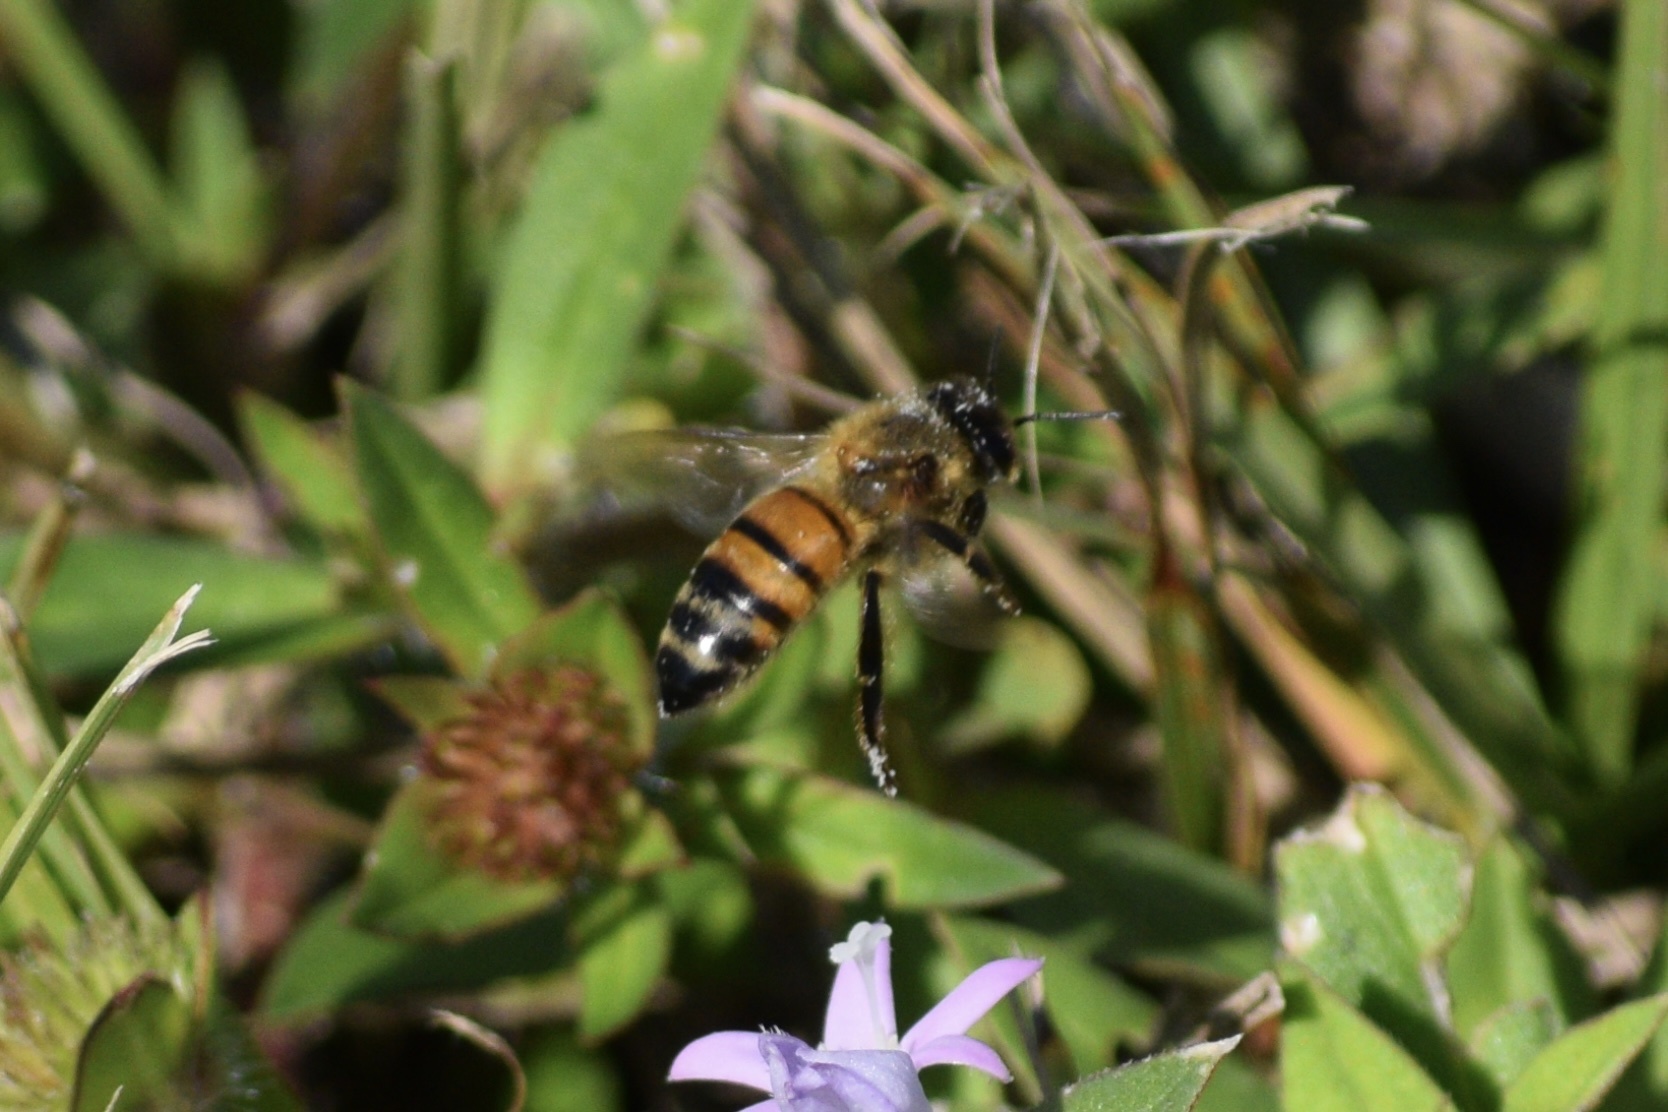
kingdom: Animalia
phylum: Arthropoda
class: Insecta
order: Hymenoptera
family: Apidae
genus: Apis
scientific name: Apis mellifera
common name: Honey bee
